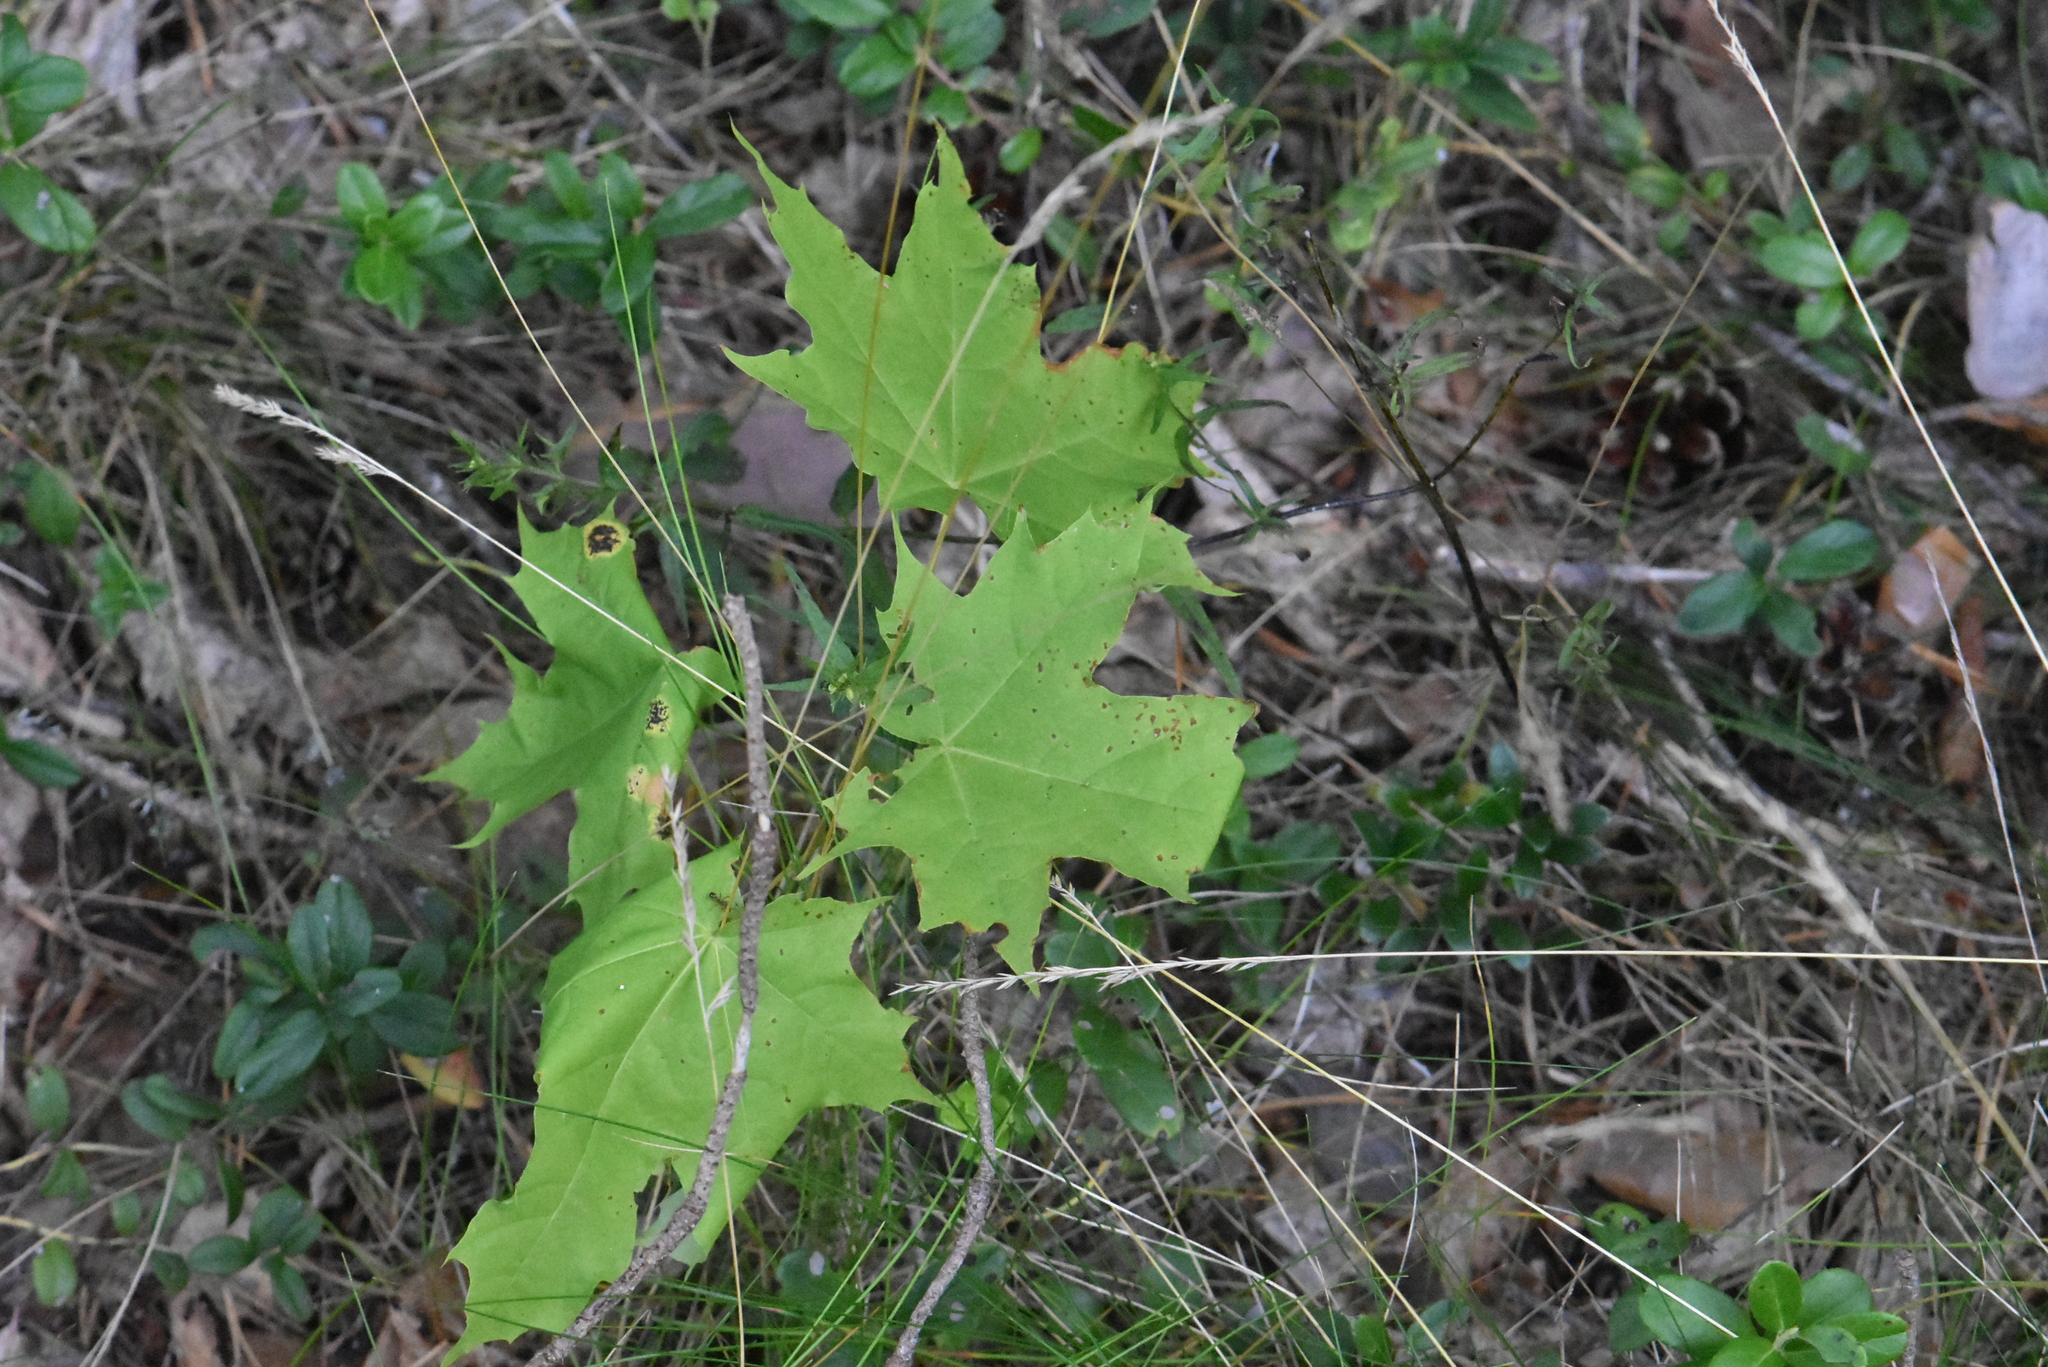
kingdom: Plantae
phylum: Tracheophyta
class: Magnoliopsida
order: Sapindales
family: Sapindaceae
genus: Acer
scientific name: Acer platanoides
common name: Norway maple
